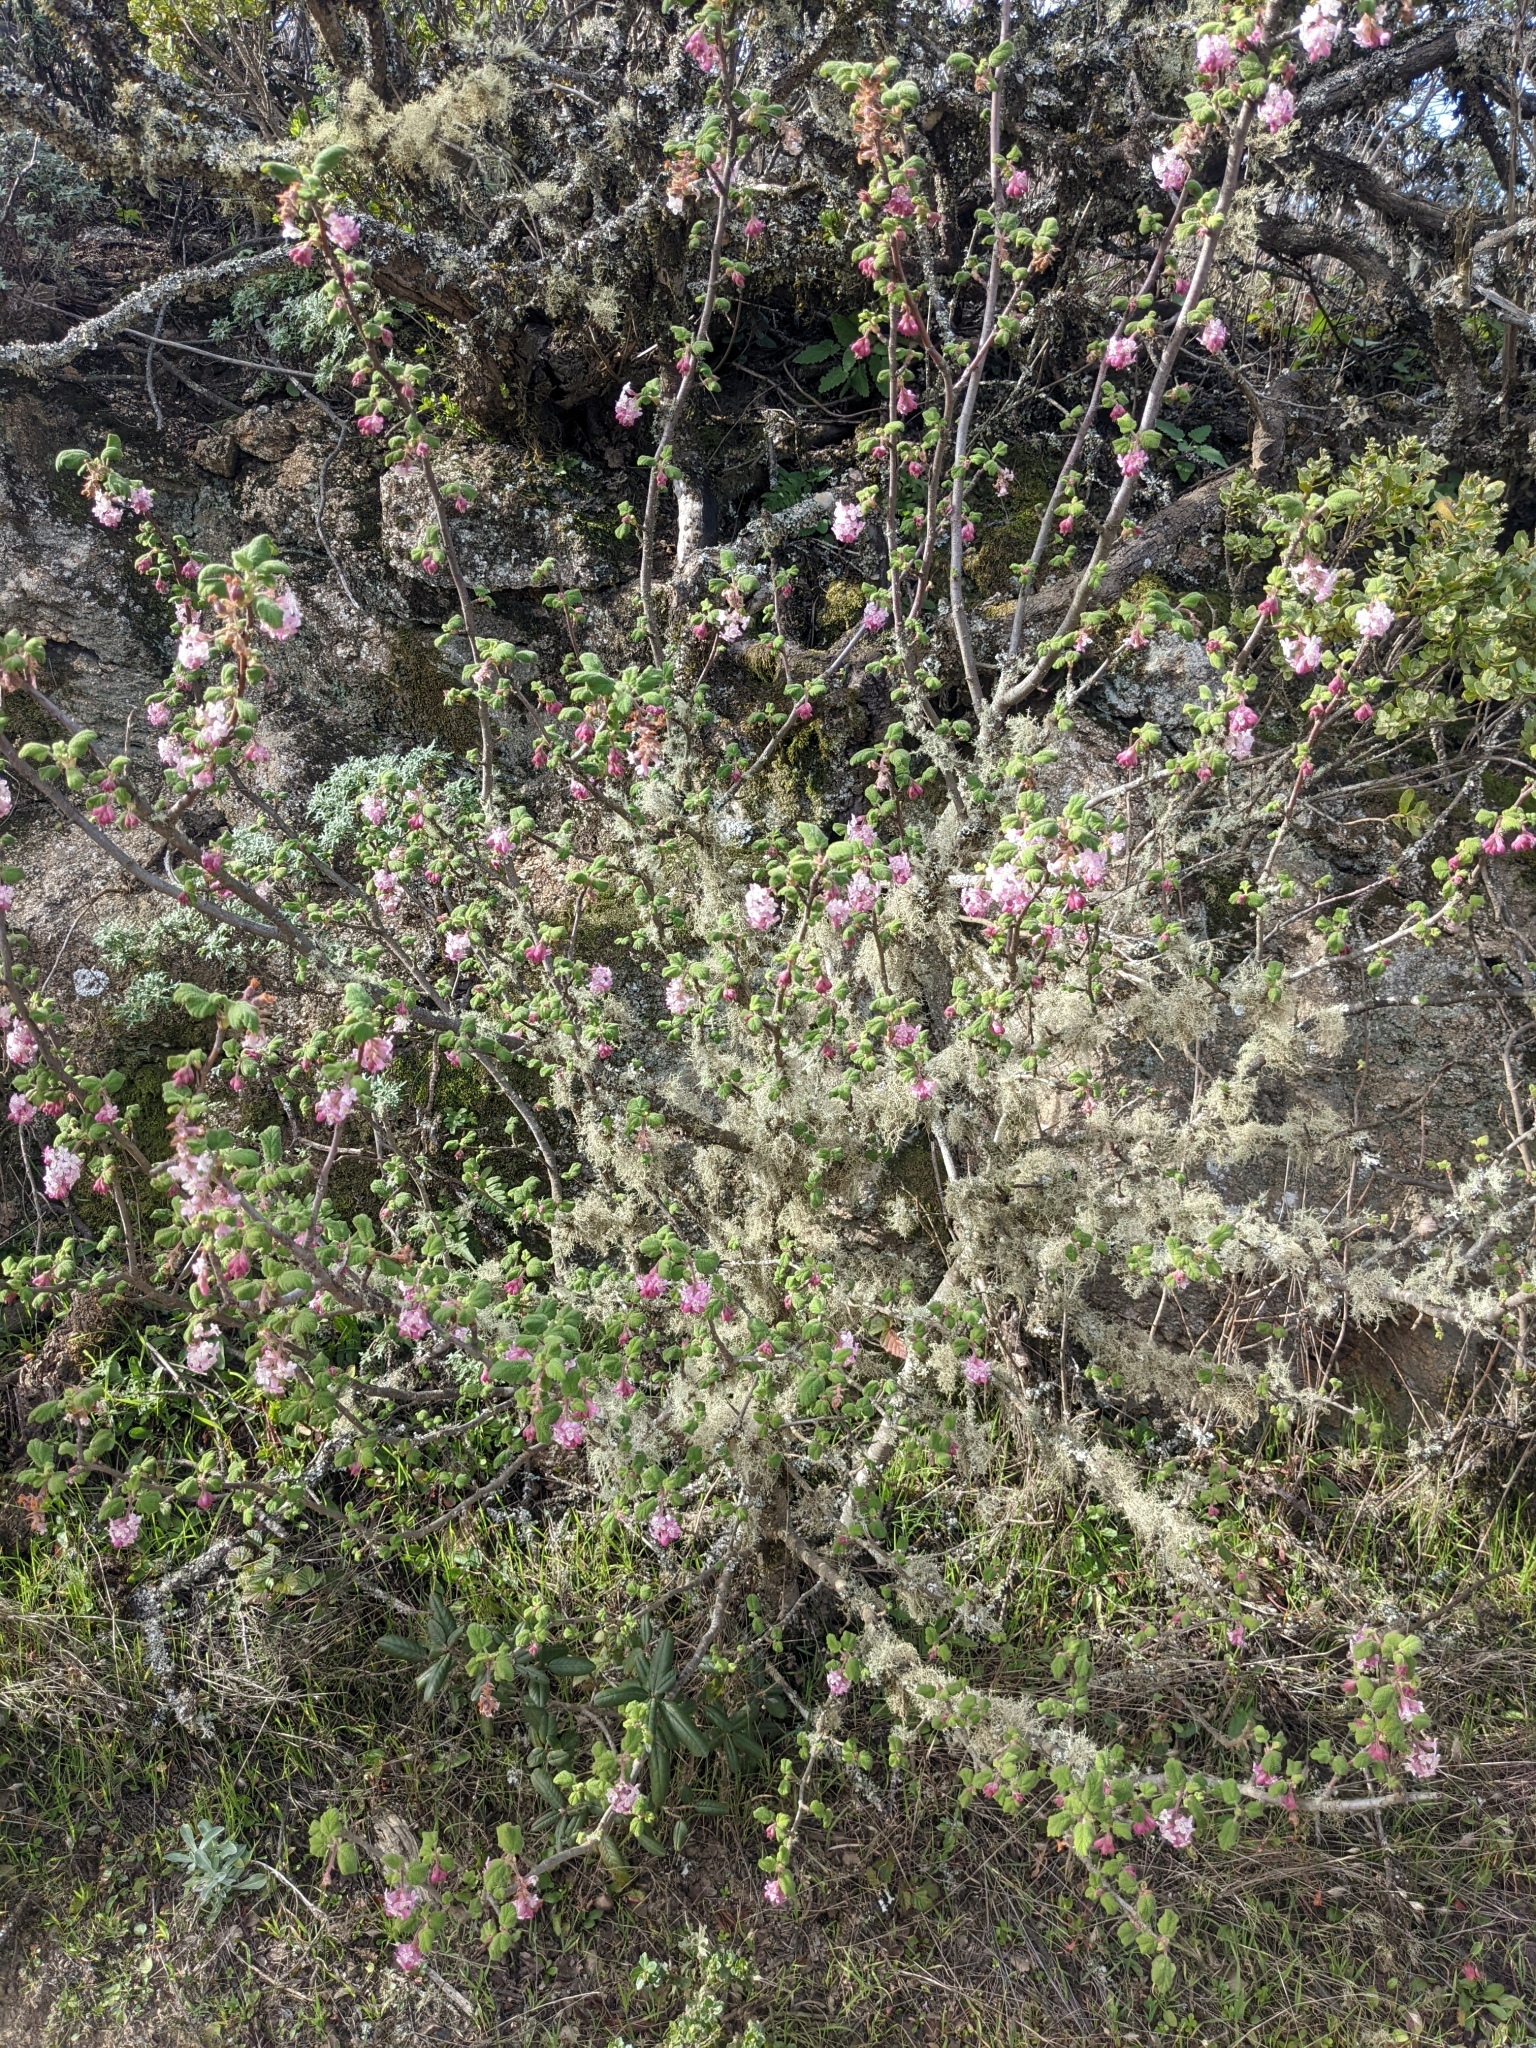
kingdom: Plantae
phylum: Tracheophyta
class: Magnoliopsida
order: Saxifragales
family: Grossulariaceae
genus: Ribes
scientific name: Ribes malvaceum
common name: Chaparral currant
